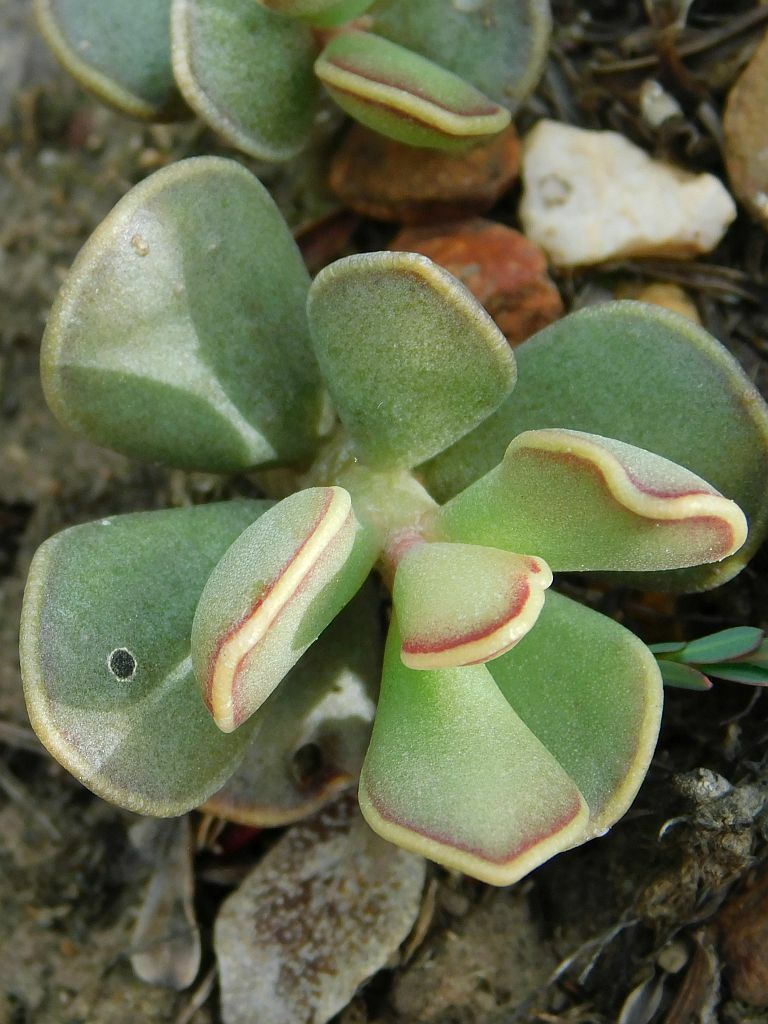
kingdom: Plantae
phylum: Tracheophyta
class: Magnoliopsida
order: Saxifragales
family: Crassulaceae
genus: Adromischus
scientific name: Adromischus caryophyllaceus
